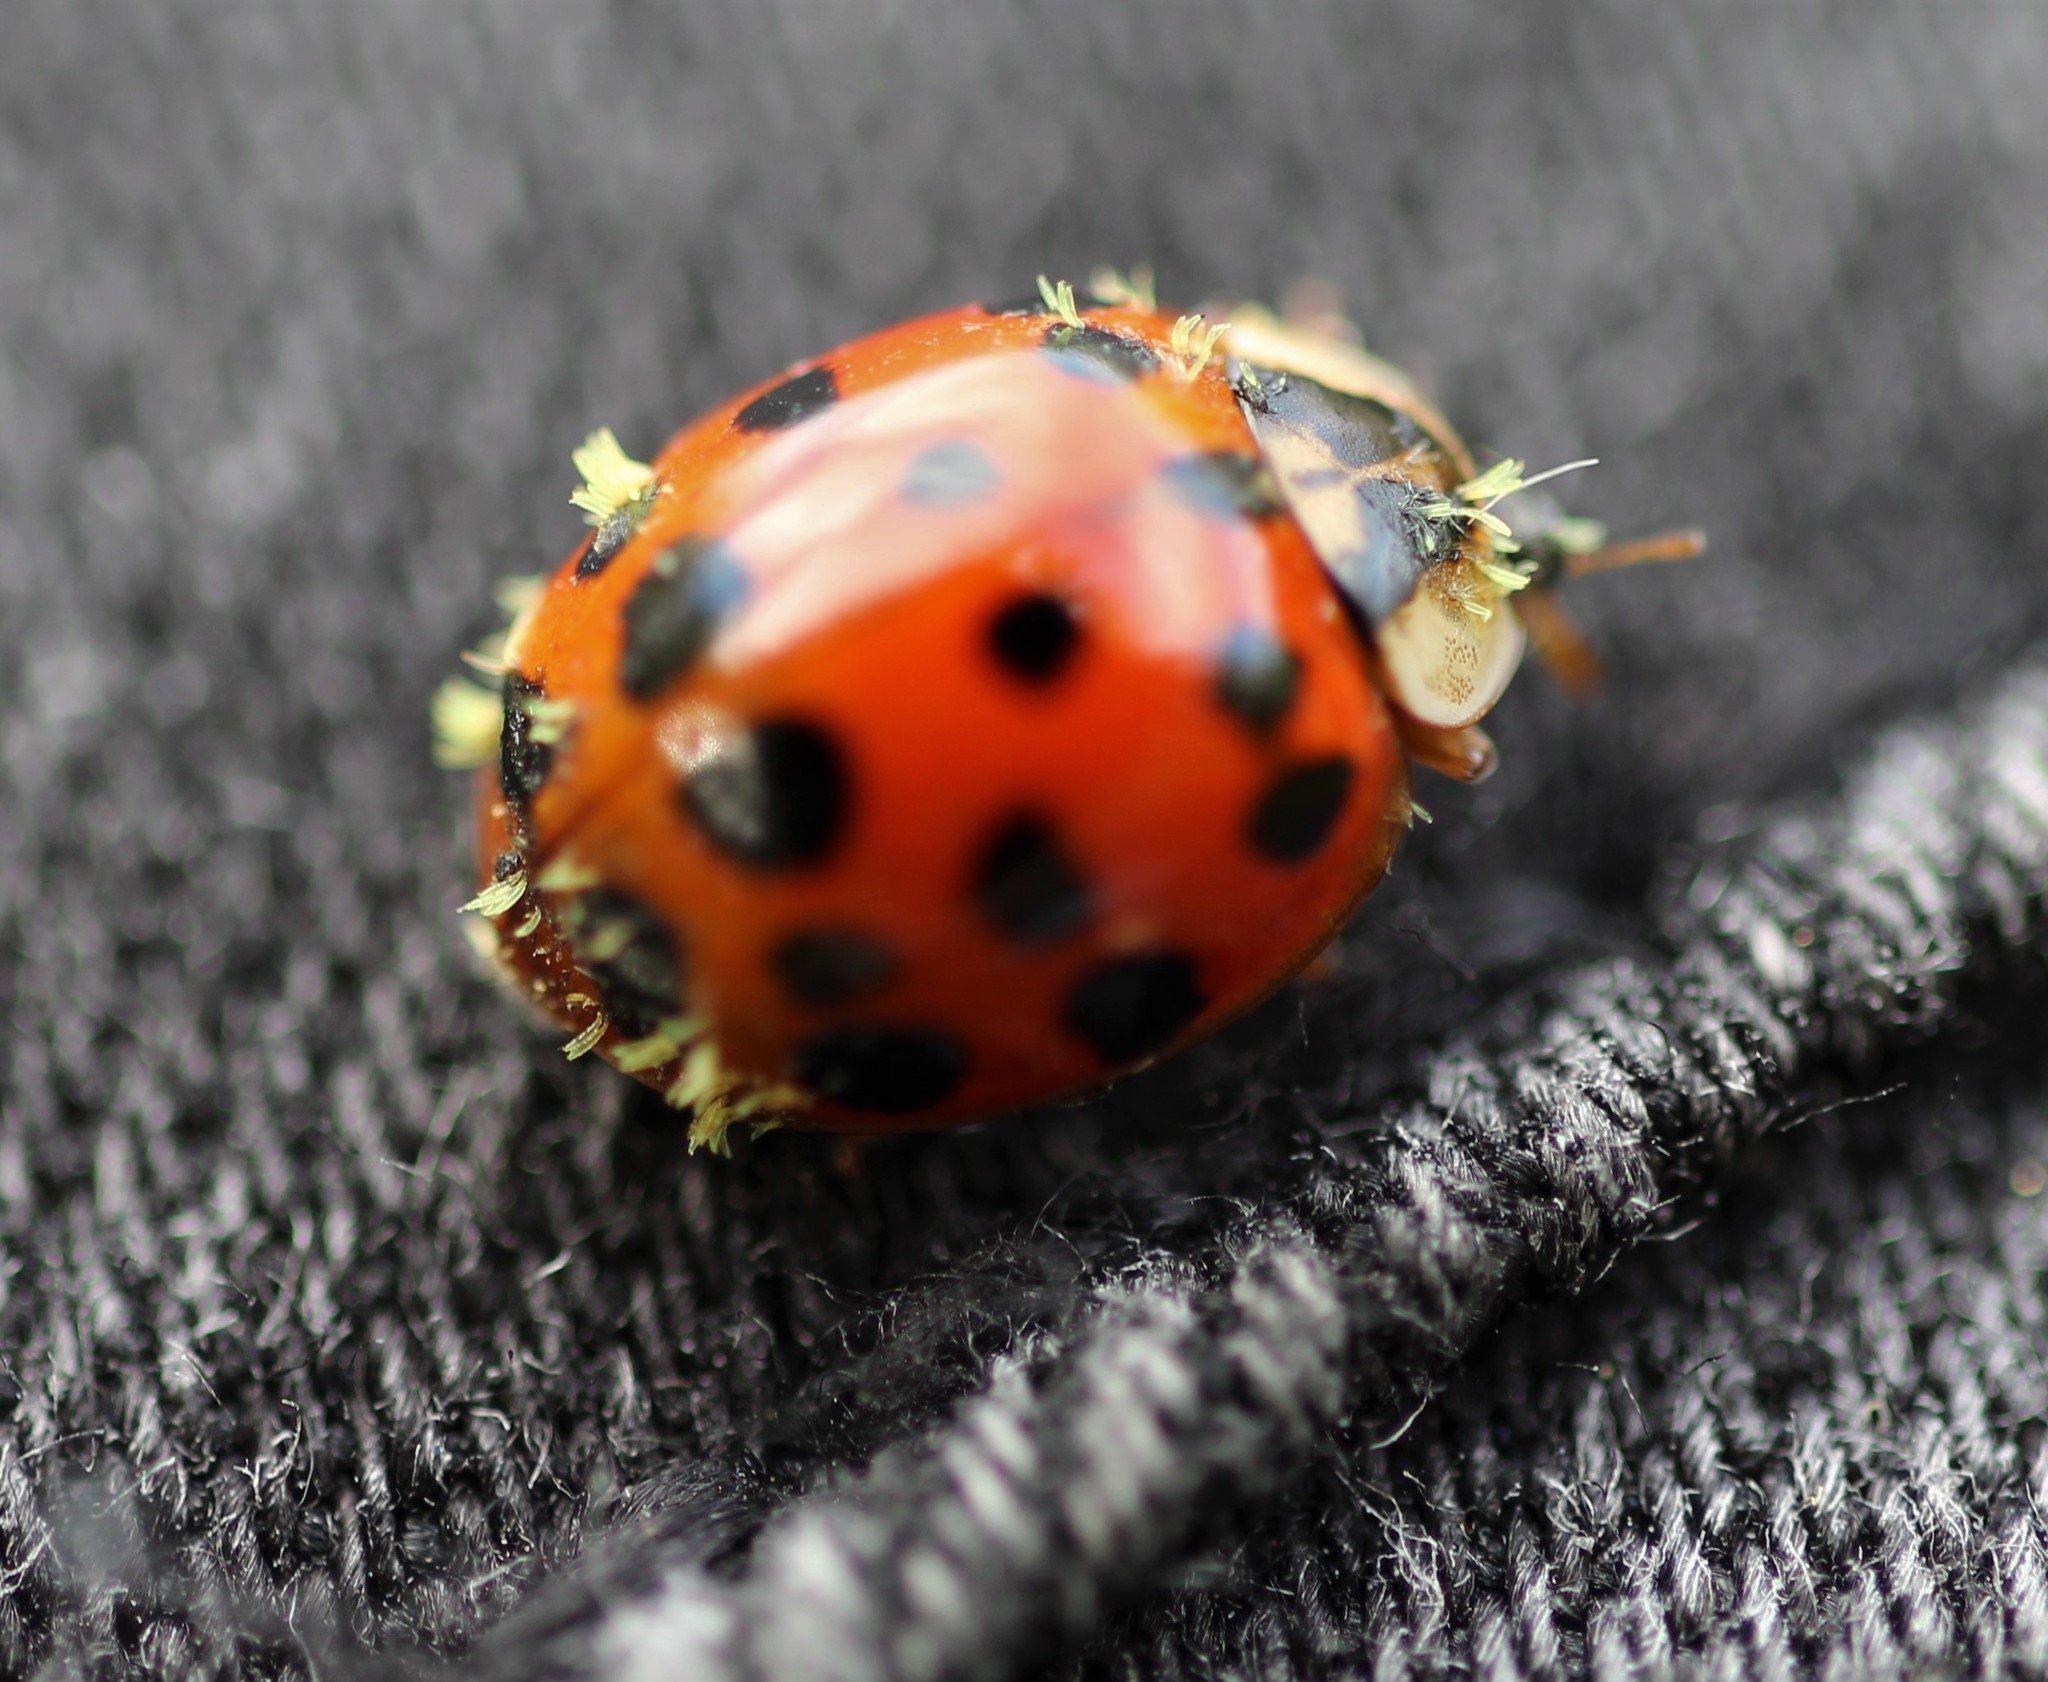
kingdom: Animalia
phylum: Arthropoda
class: Insecta
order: Coleoptera
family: Coccinellidae
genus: Harmonia
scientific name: Harmonia axyridis
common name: Harlequin ladybird
